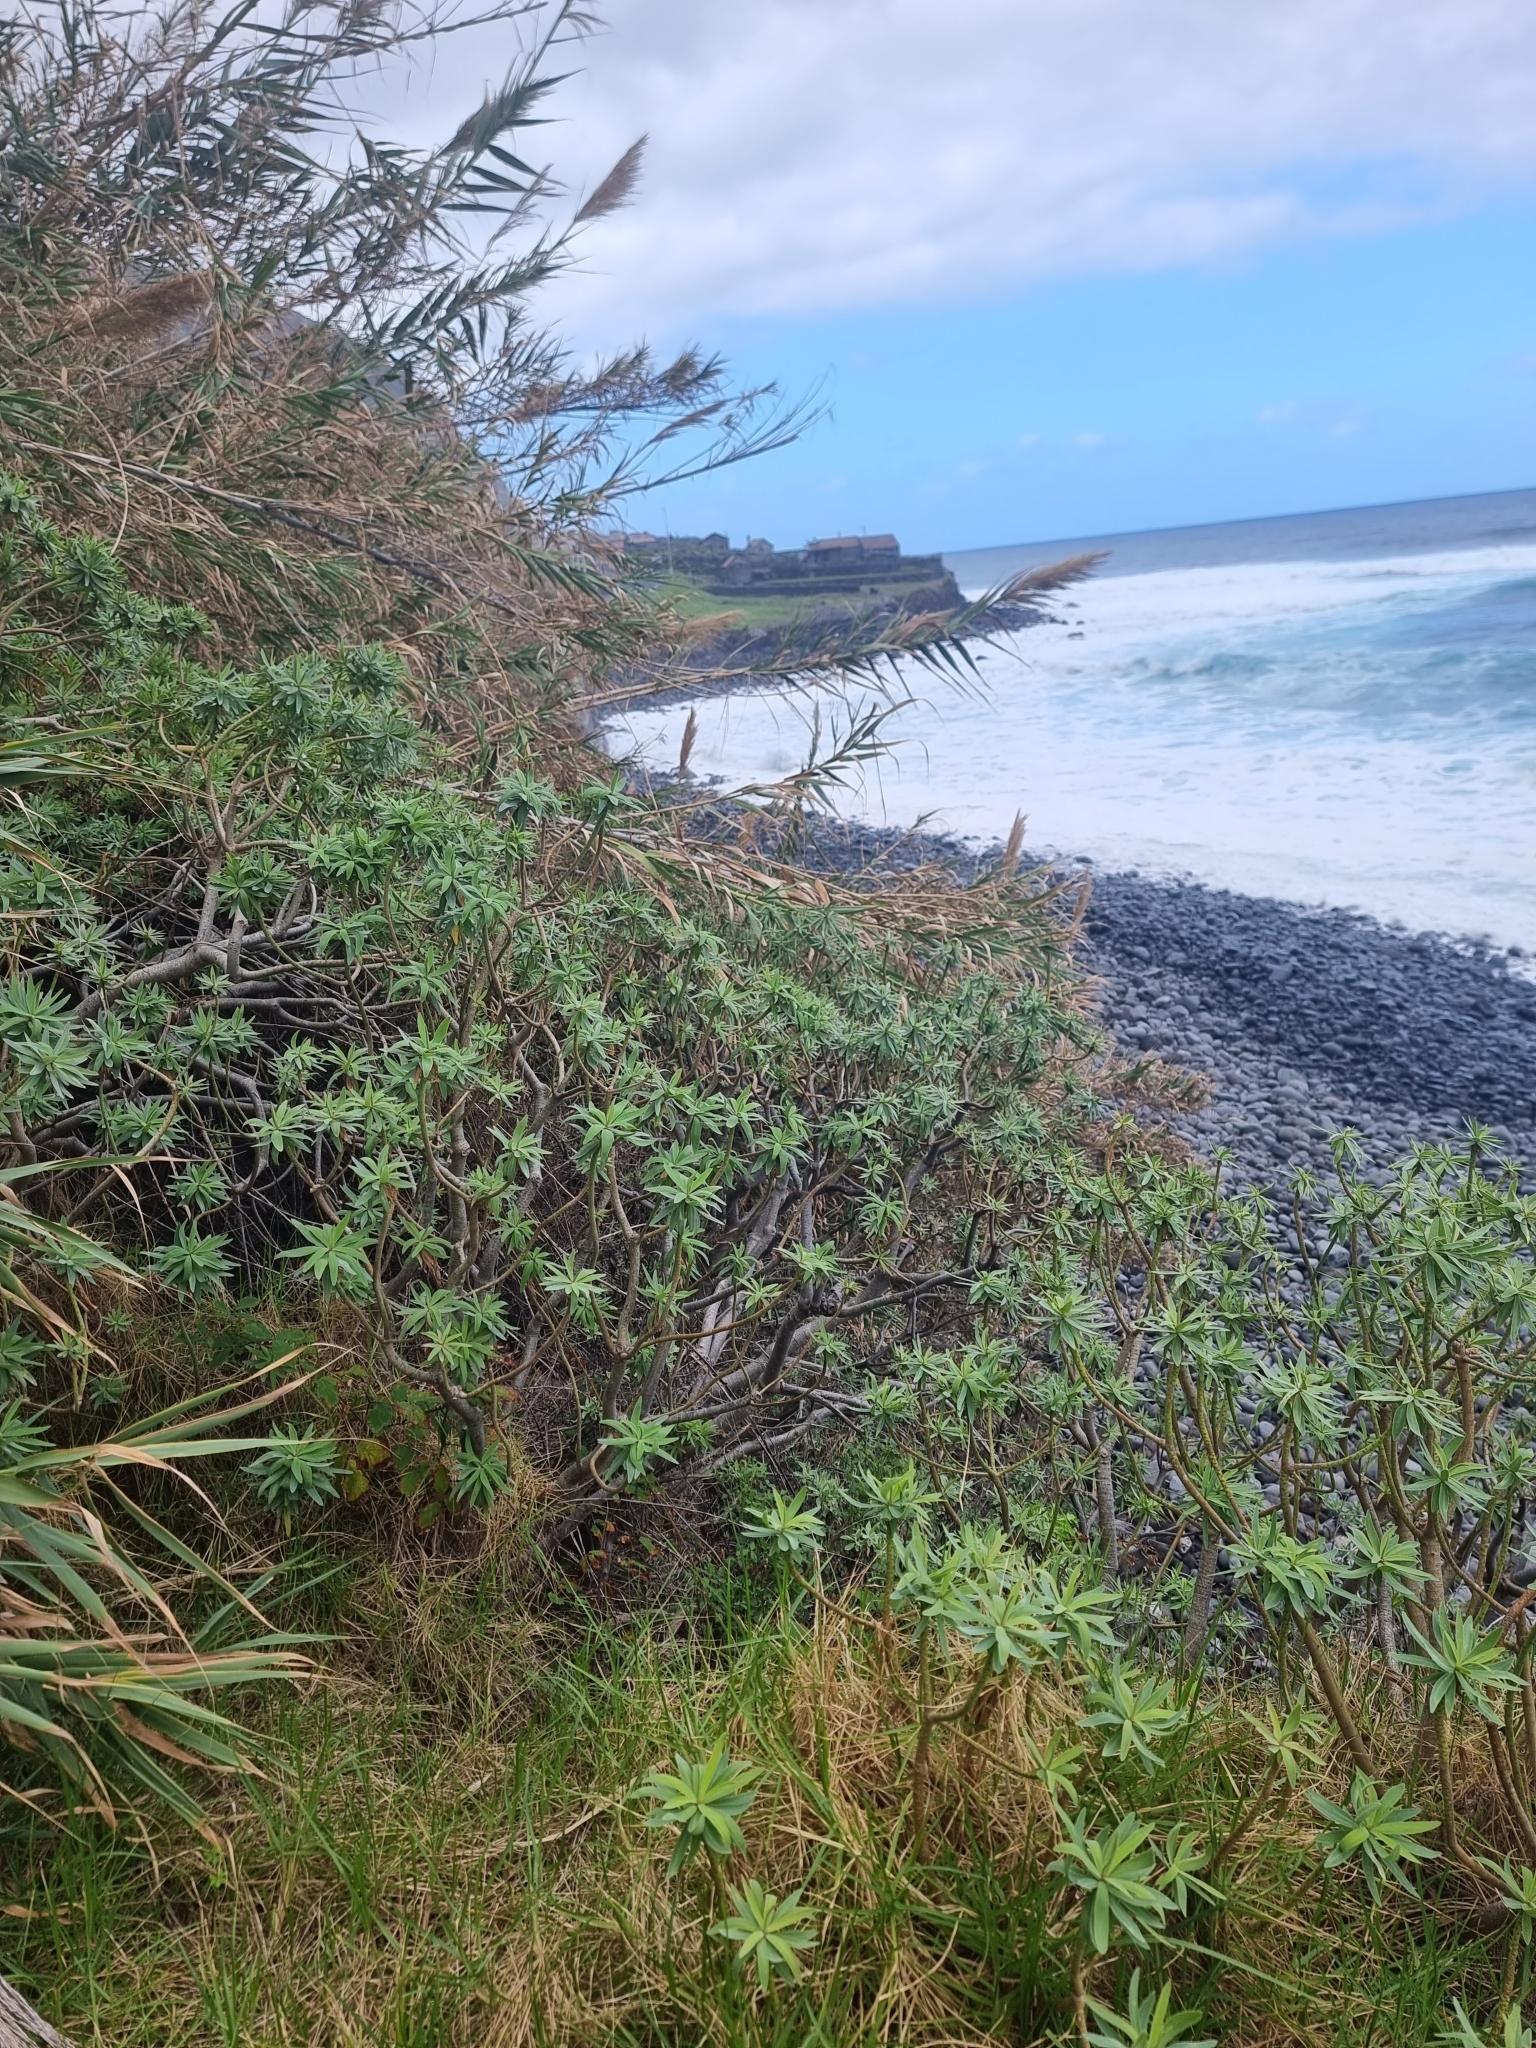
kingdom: Plantae
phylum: Tracheophyta
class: Magnoliopsida
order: Malpighiales
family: Euphorbiaceae
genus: Euphorbia
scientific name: Euphorbia piscatoria
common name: Fish-stunning spurge
